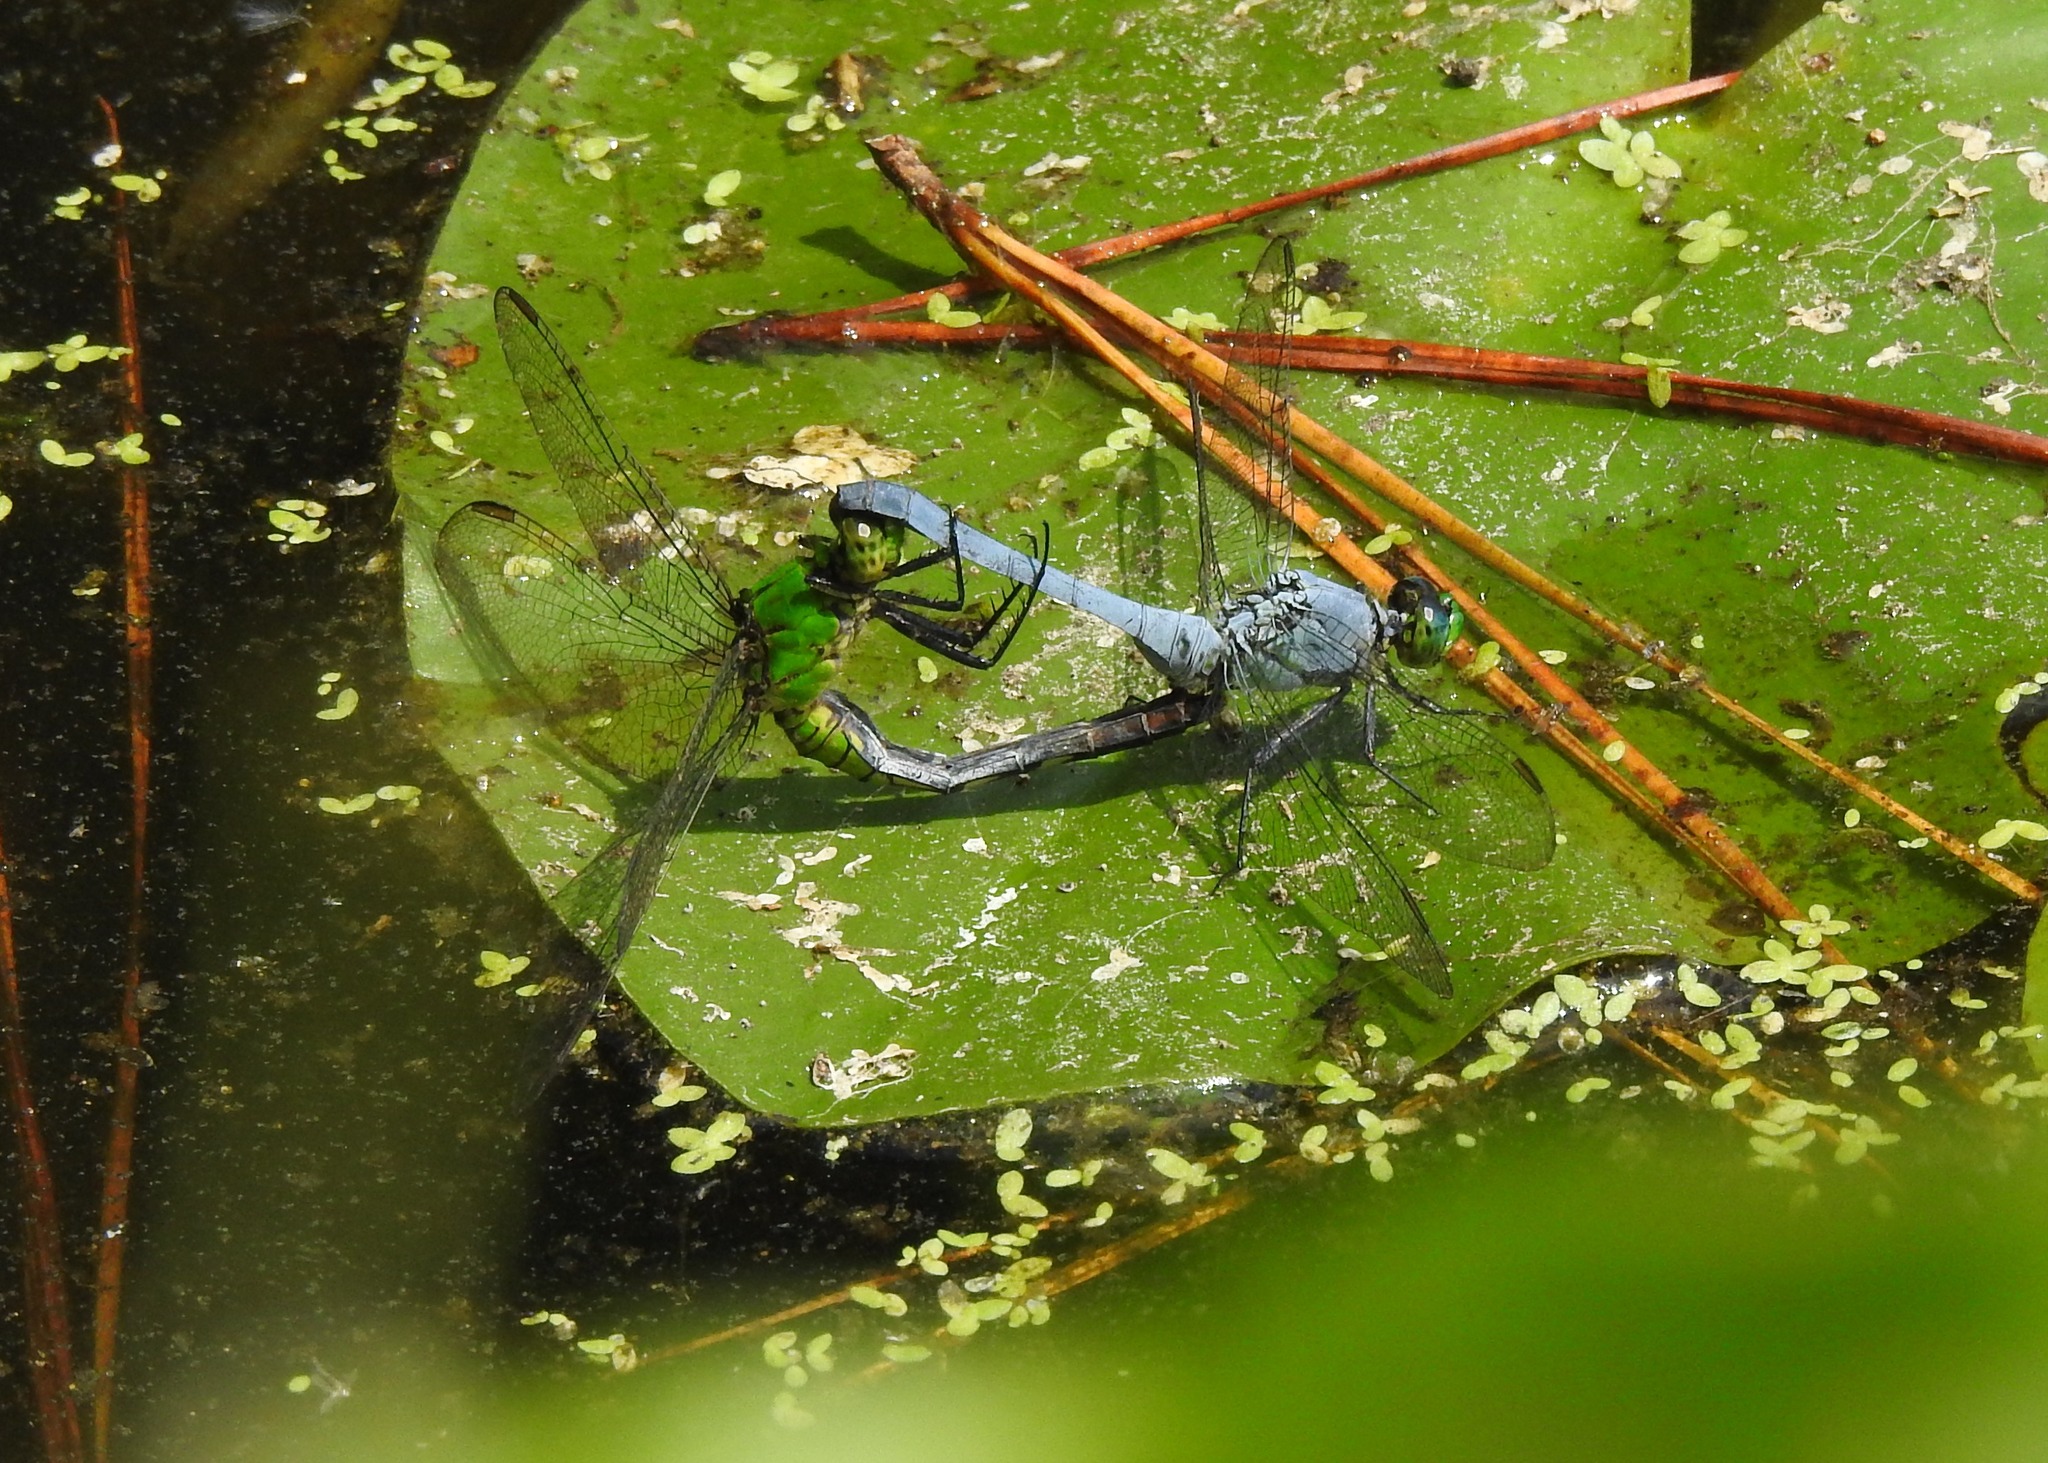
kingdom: Animalia
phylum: Arthropoda
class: Insecta
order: Odonata
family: Libellulidae
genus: Erythemis
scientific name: Erythemis simplicicollis
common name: Eastern pondhawk
